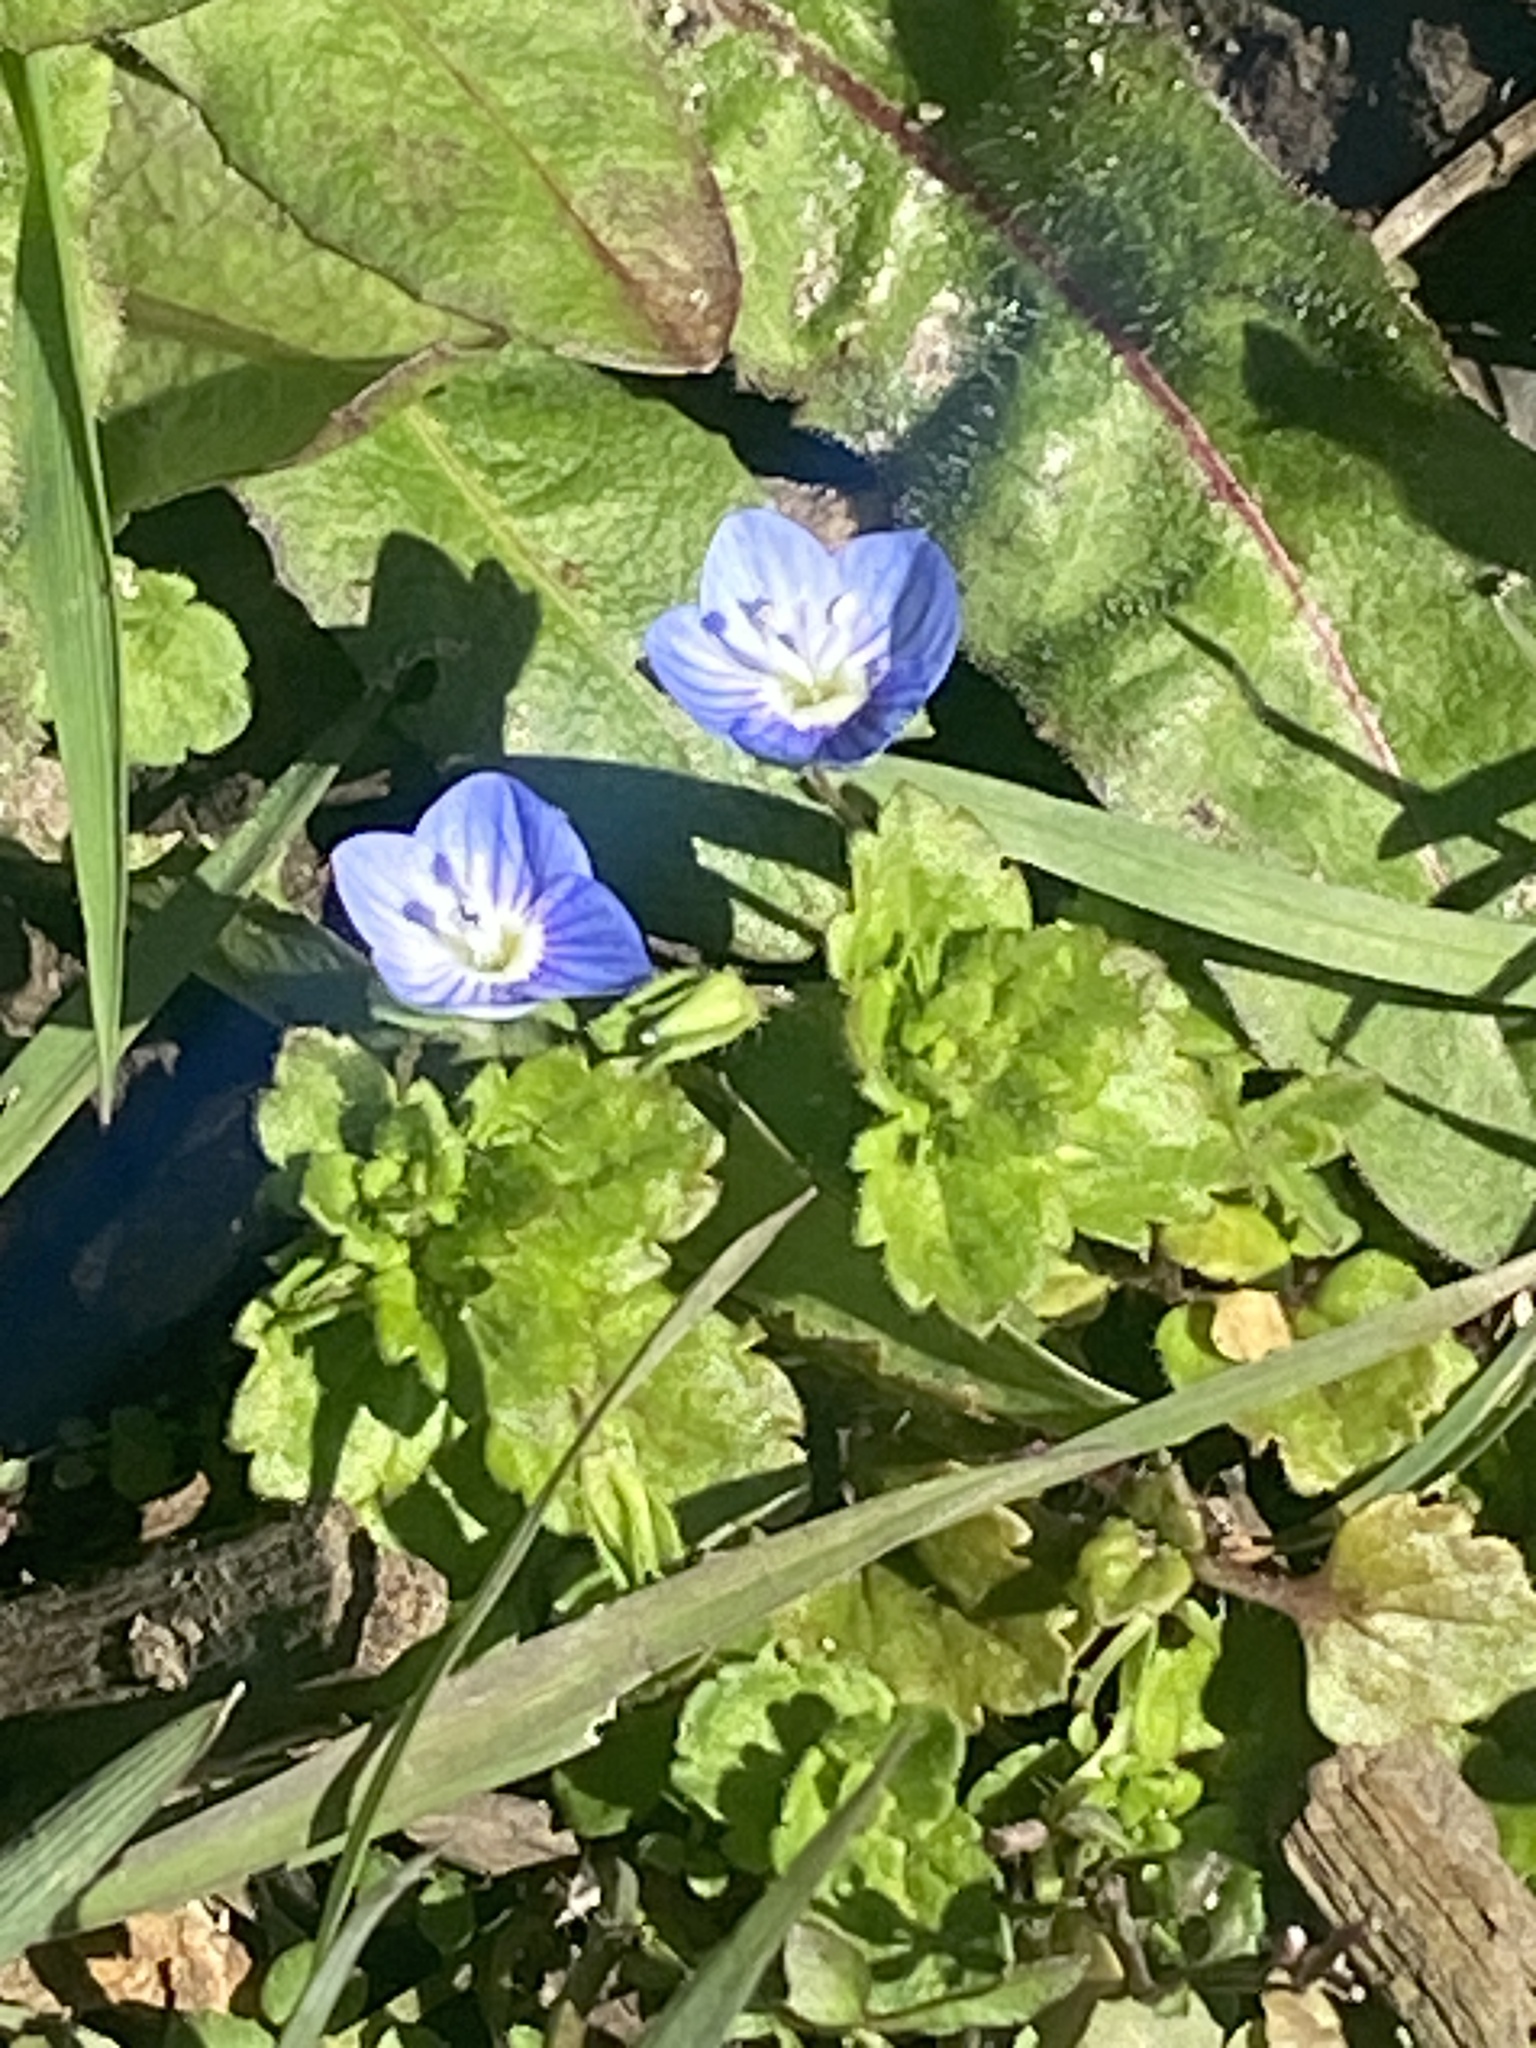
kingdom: Plantae
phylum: Tracheophyta
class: Magnoliopsida
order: Lamiales
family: Plantaginaceae
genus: Veronica
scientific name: Veronica persica
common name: Common field-speedwell
